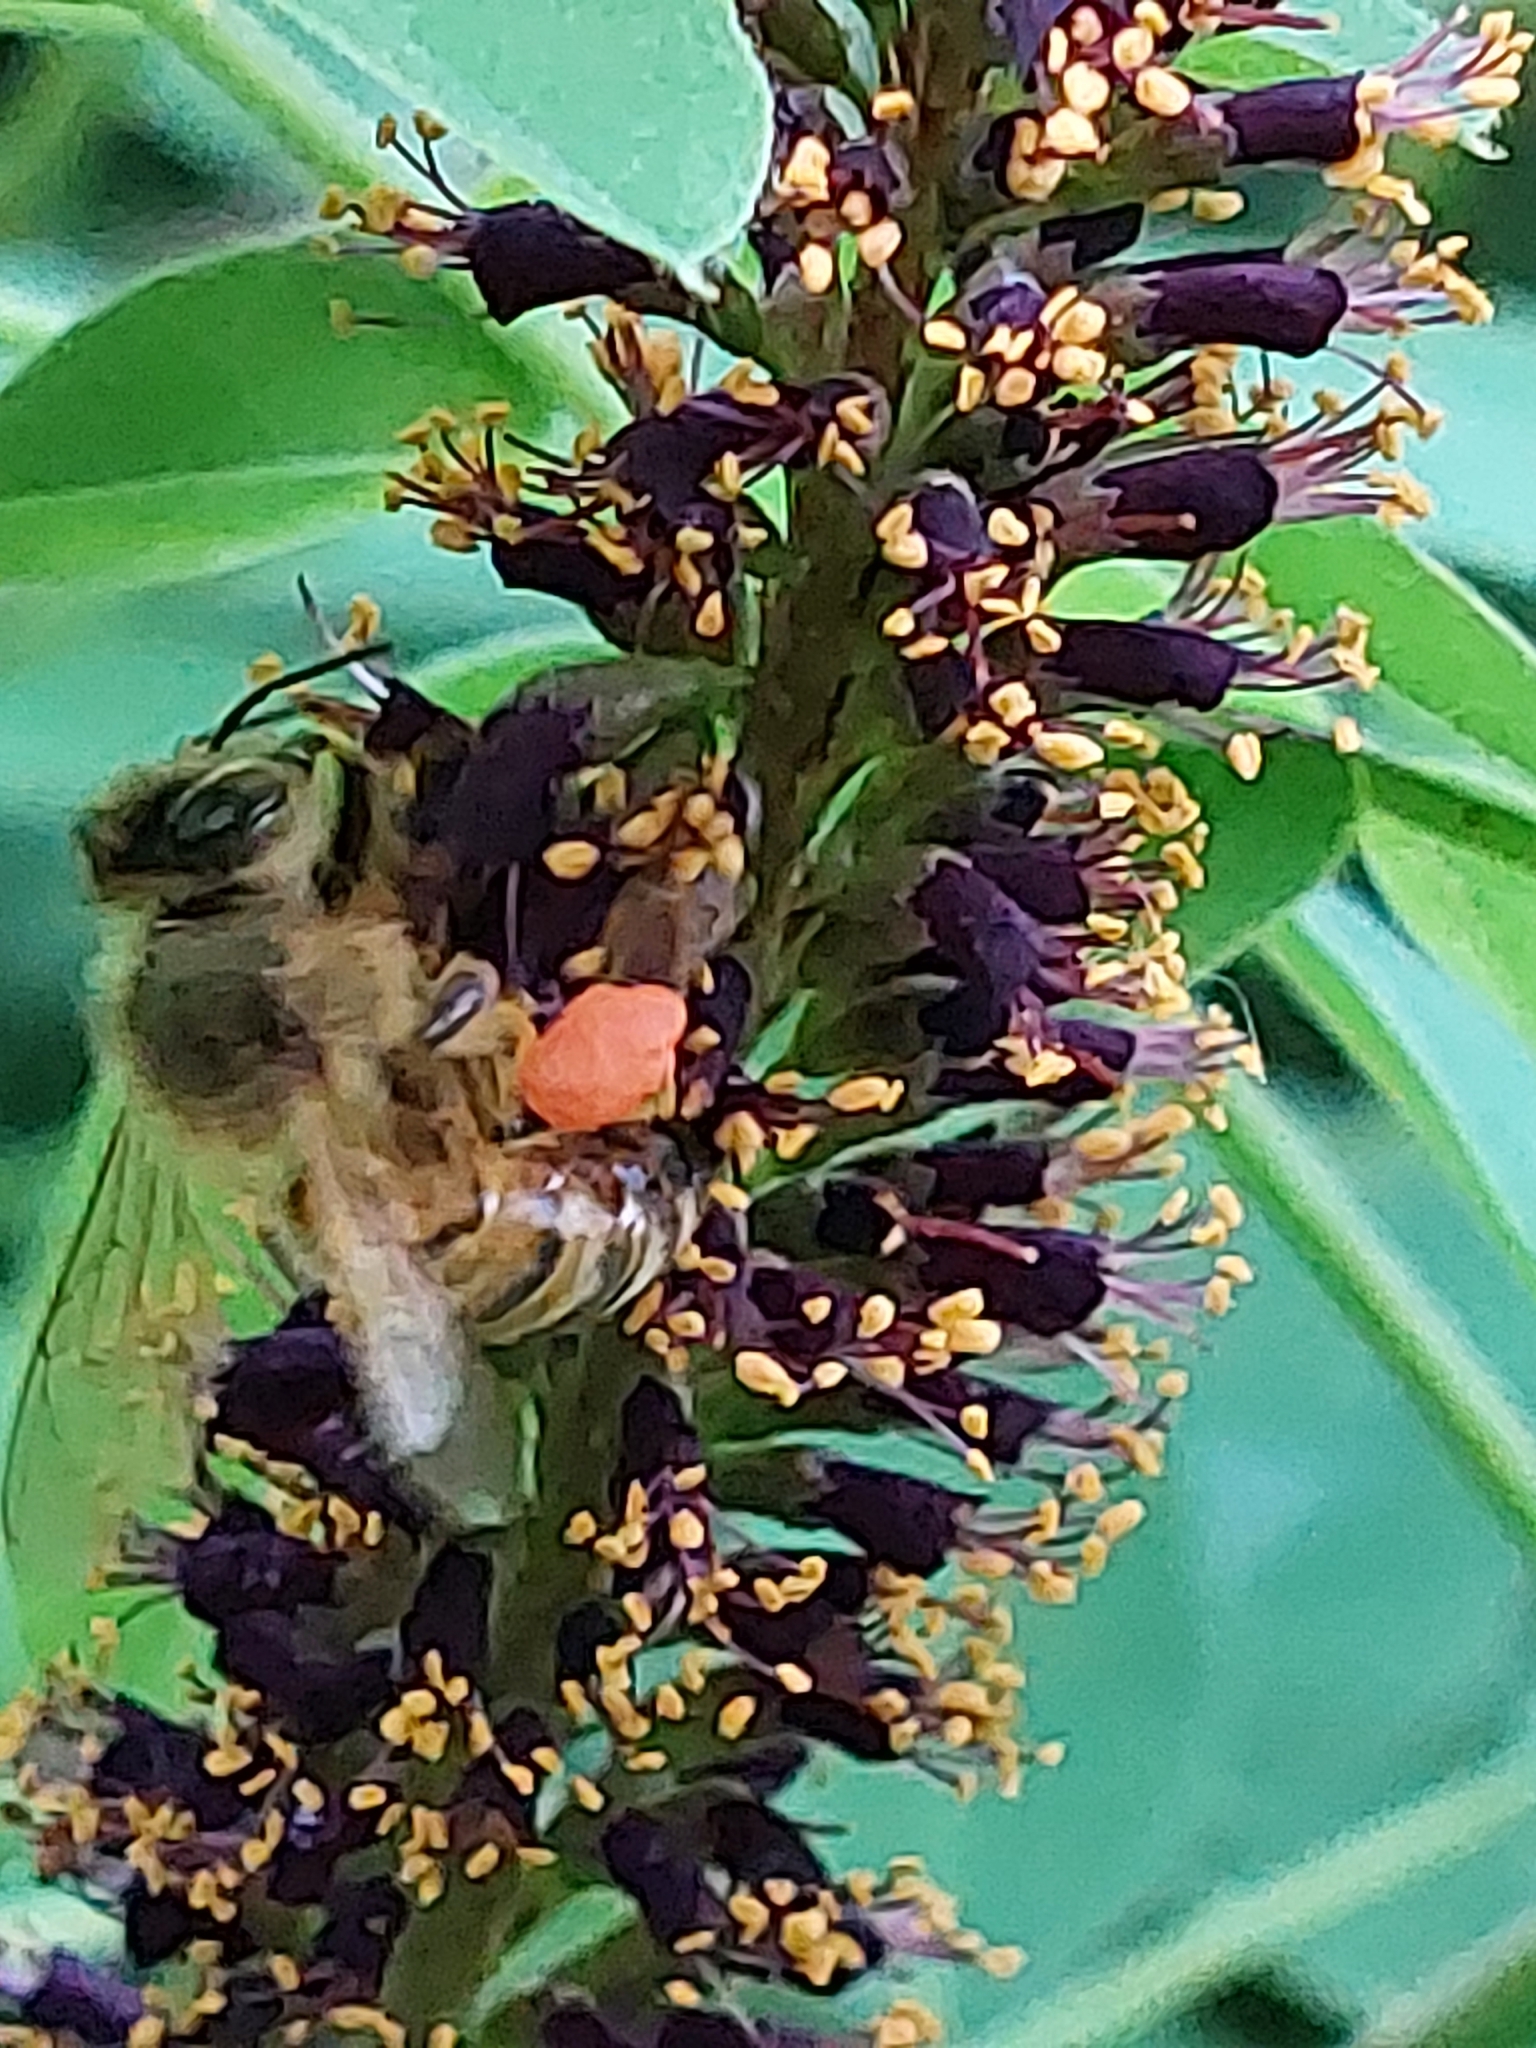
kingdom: Animalia
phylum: Arthropoda
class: Insecta
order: Hymenoptera
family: Apidae
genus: Apis
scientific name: Apis mellifera
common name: Honey bee
